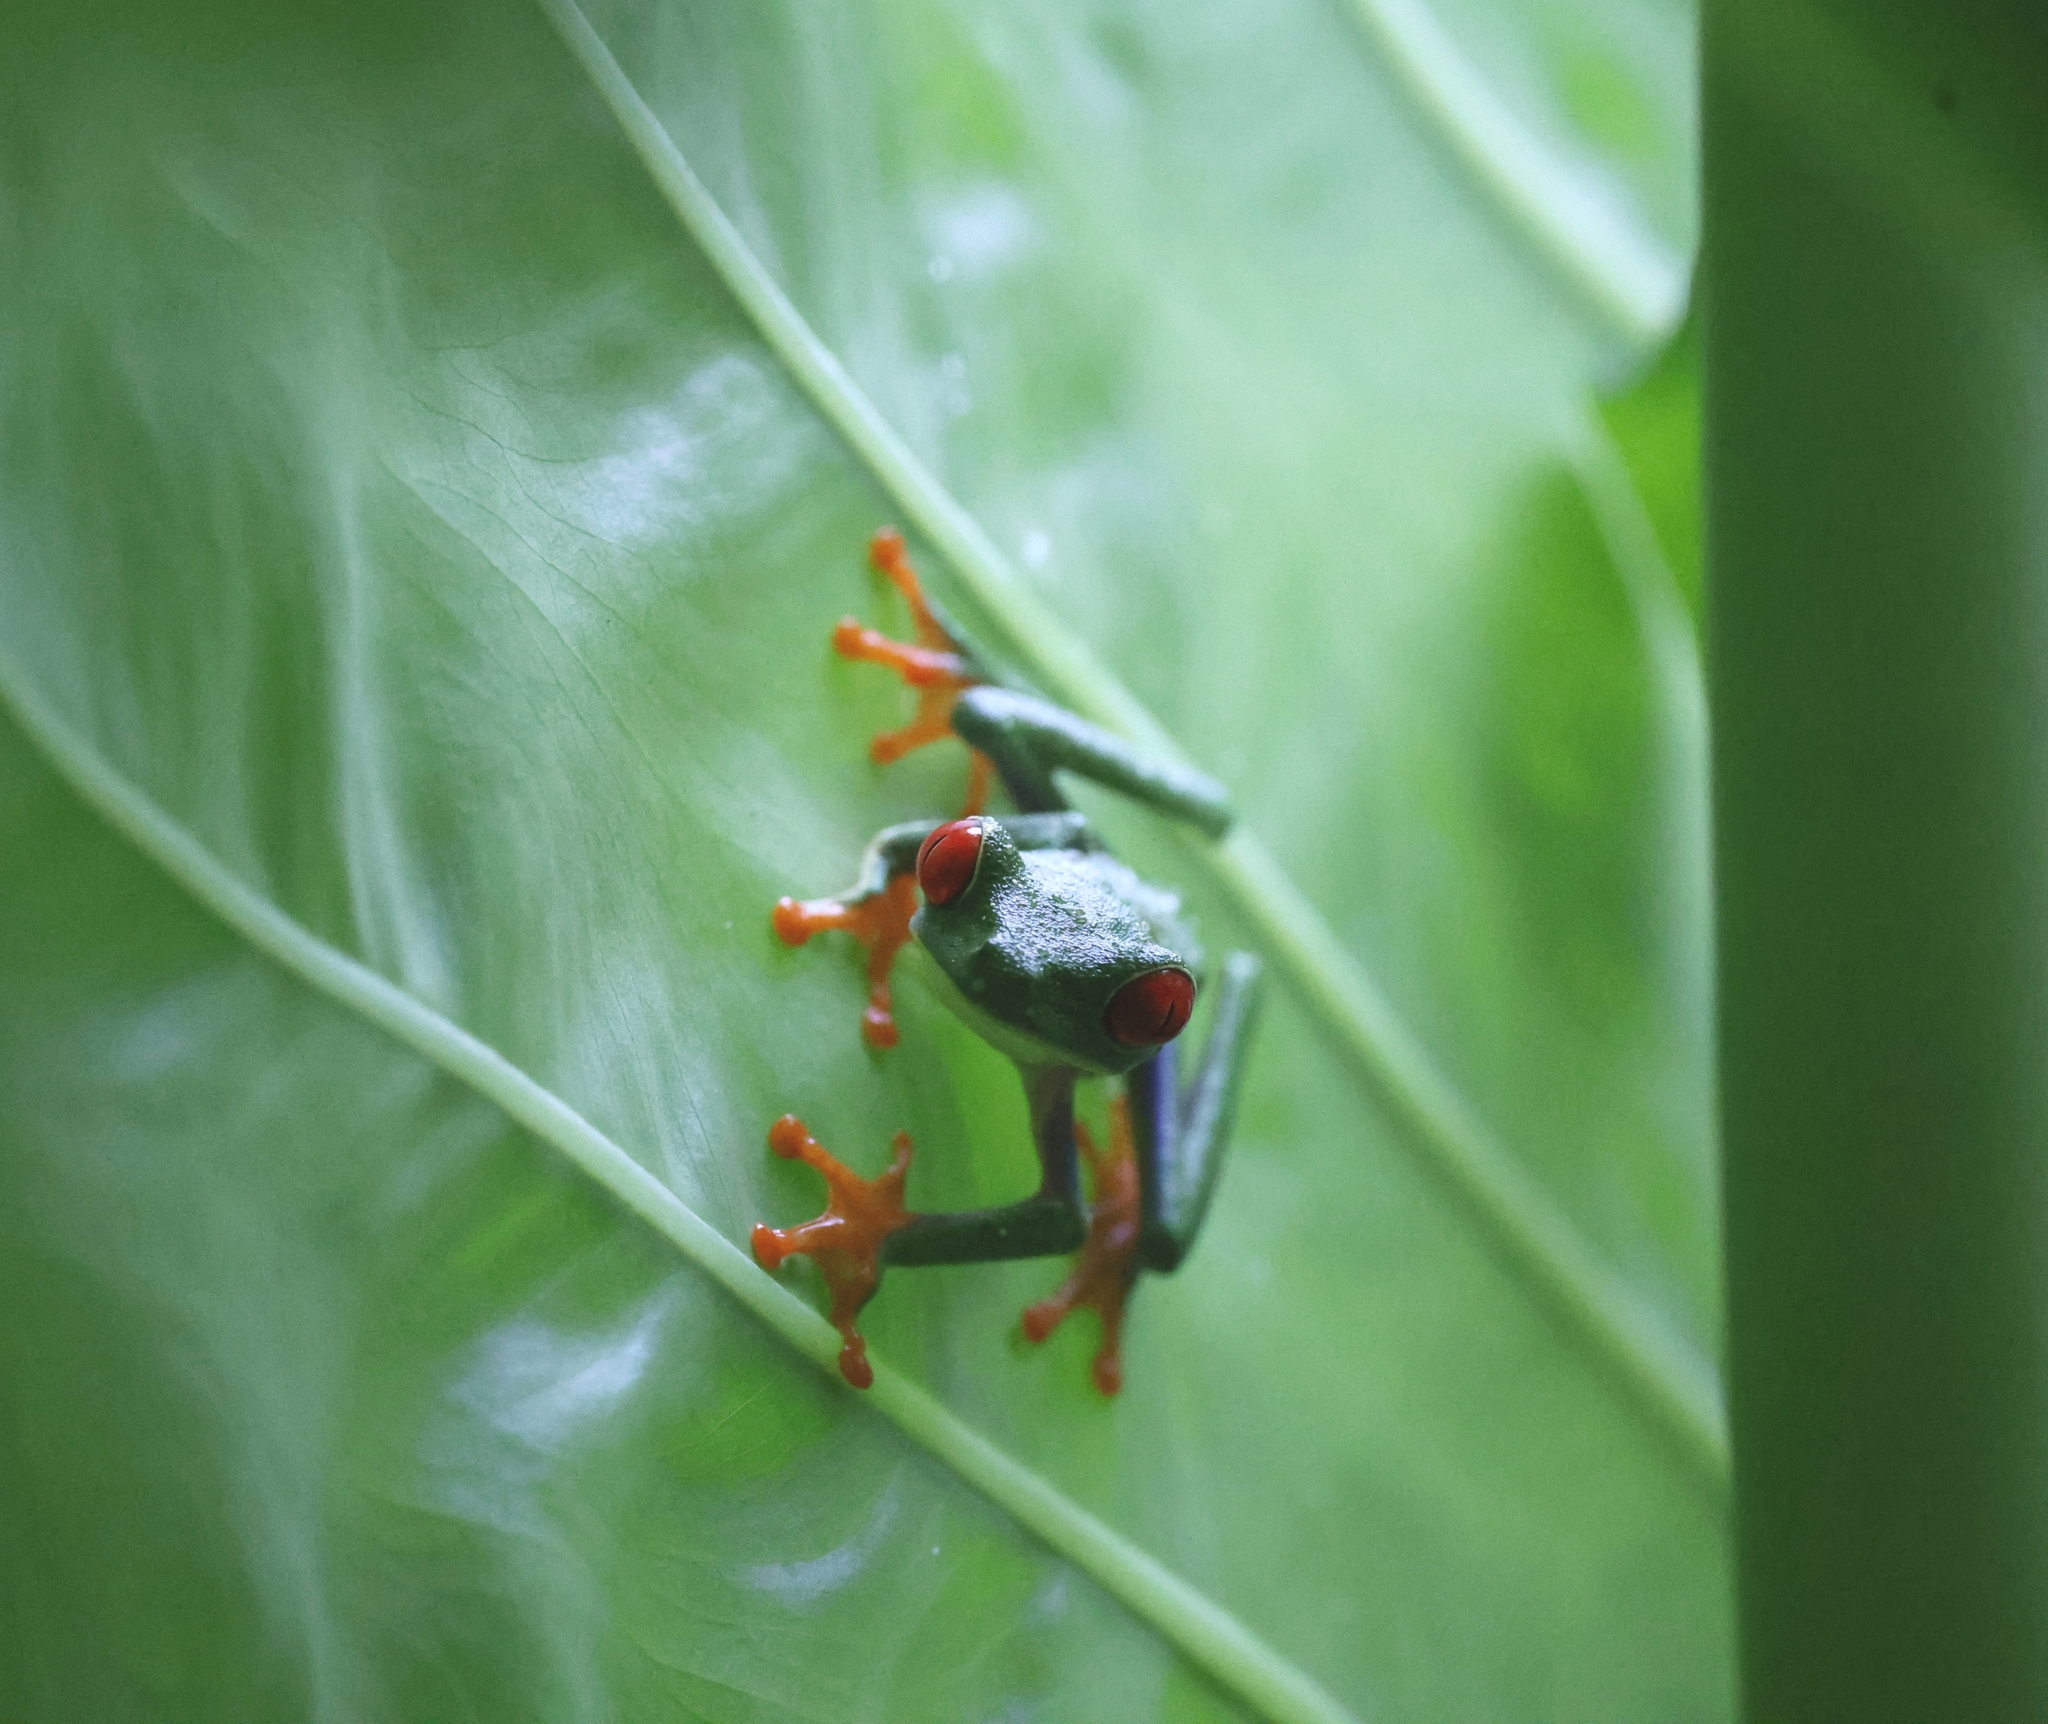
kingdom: Animalia
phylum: Chordata
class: Amphibia
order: Anura
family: Phyllomedusidae
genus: Agalychnis
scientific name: Agalychnis callidryas
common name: Red-eyed treefrog
